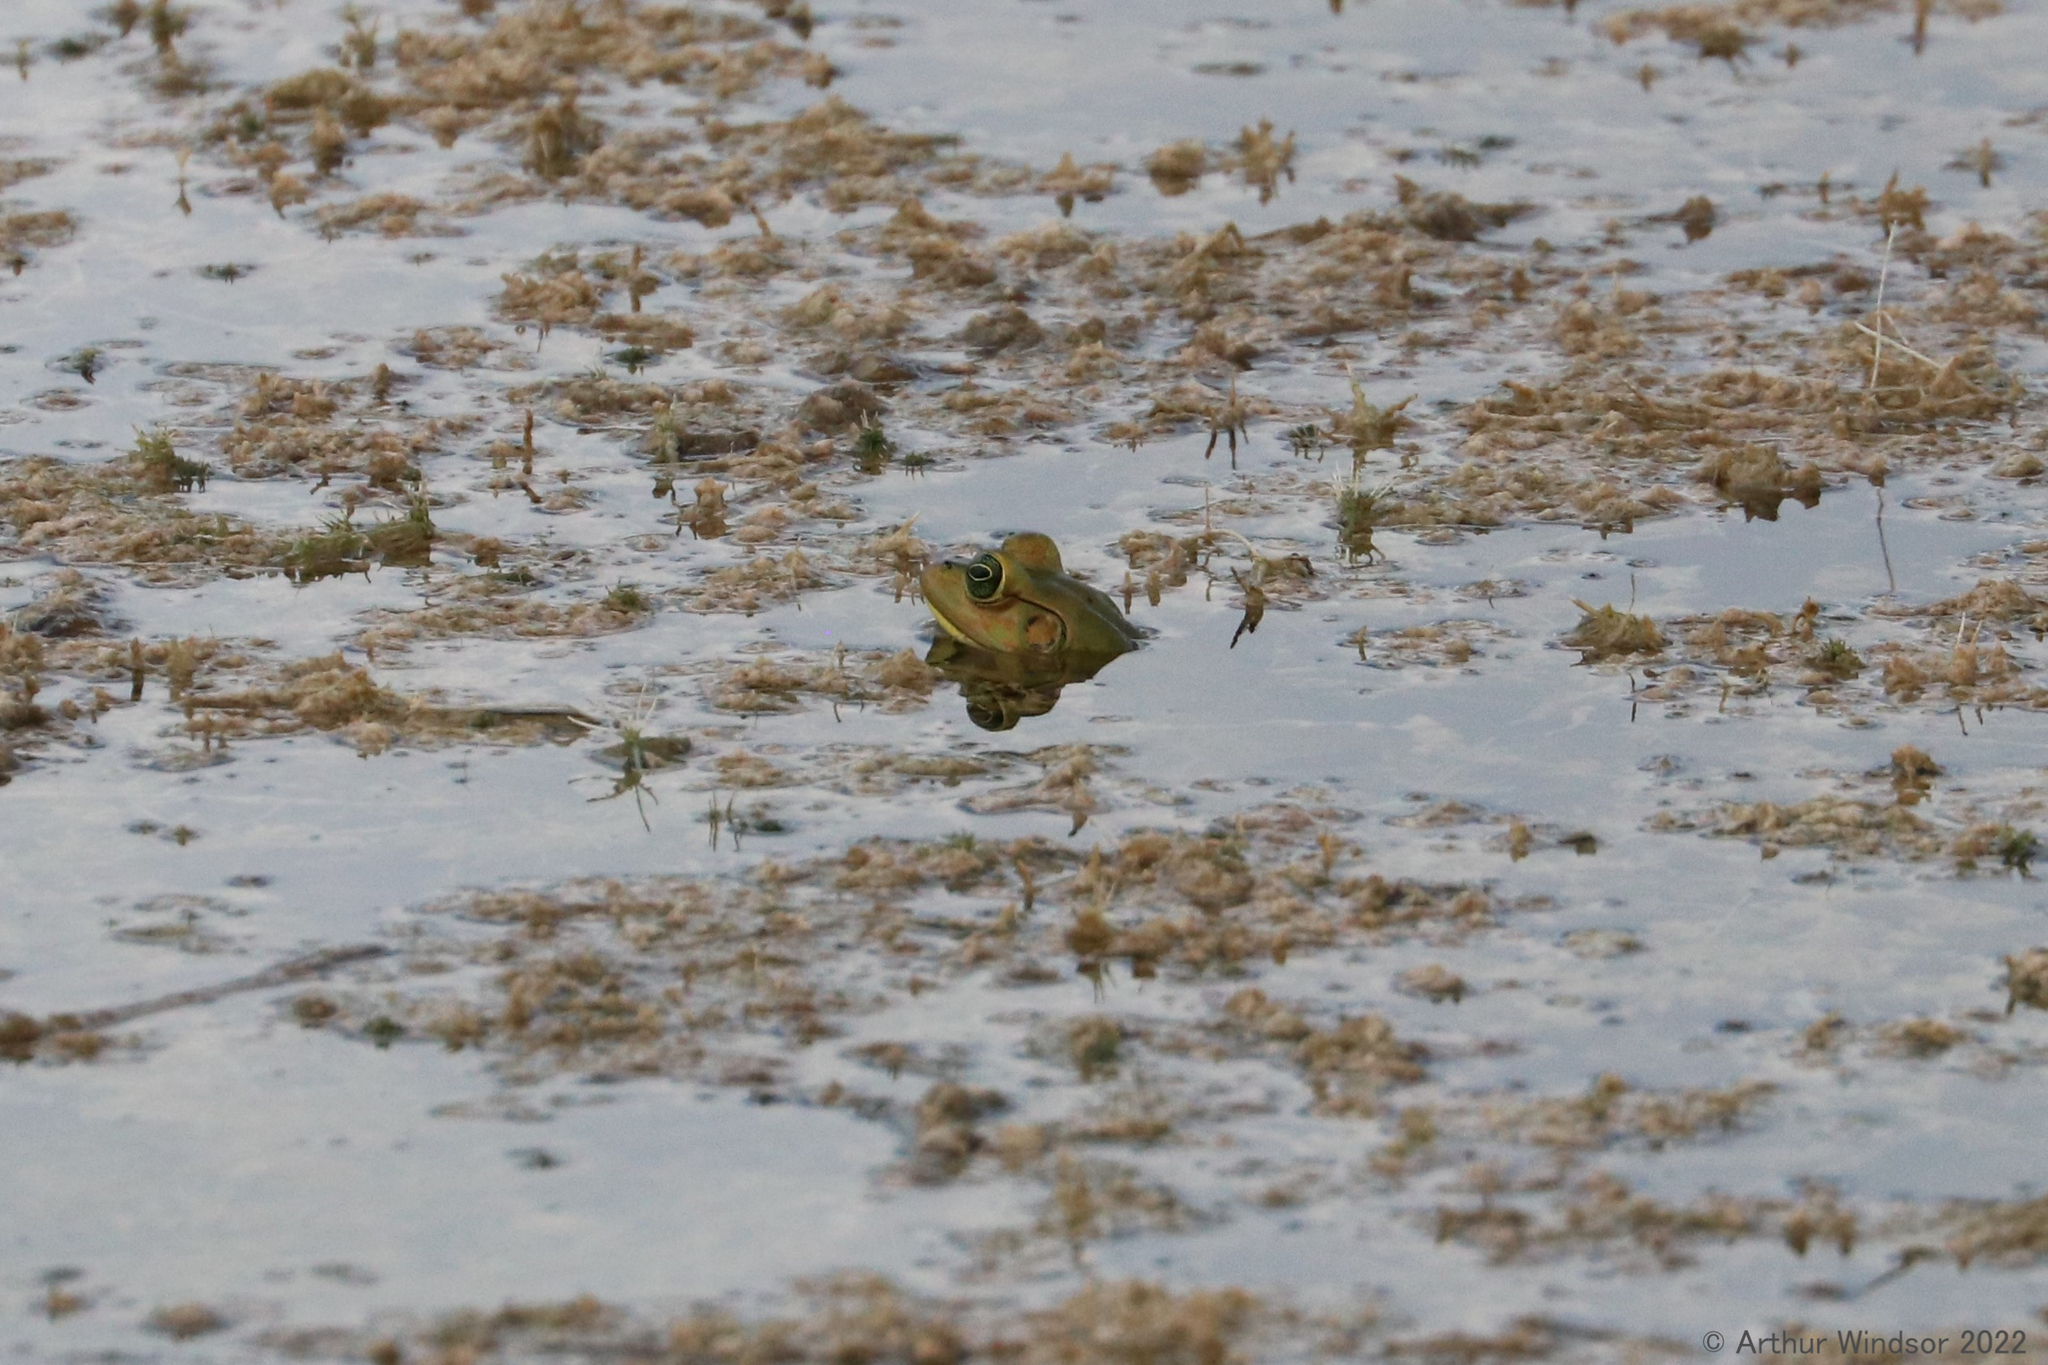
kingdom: Animalia
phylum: Chordata
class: Amphibia
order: Anura
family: Ranidae
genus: Lithobates
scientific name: Lithobates grylio
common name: Pig frog
